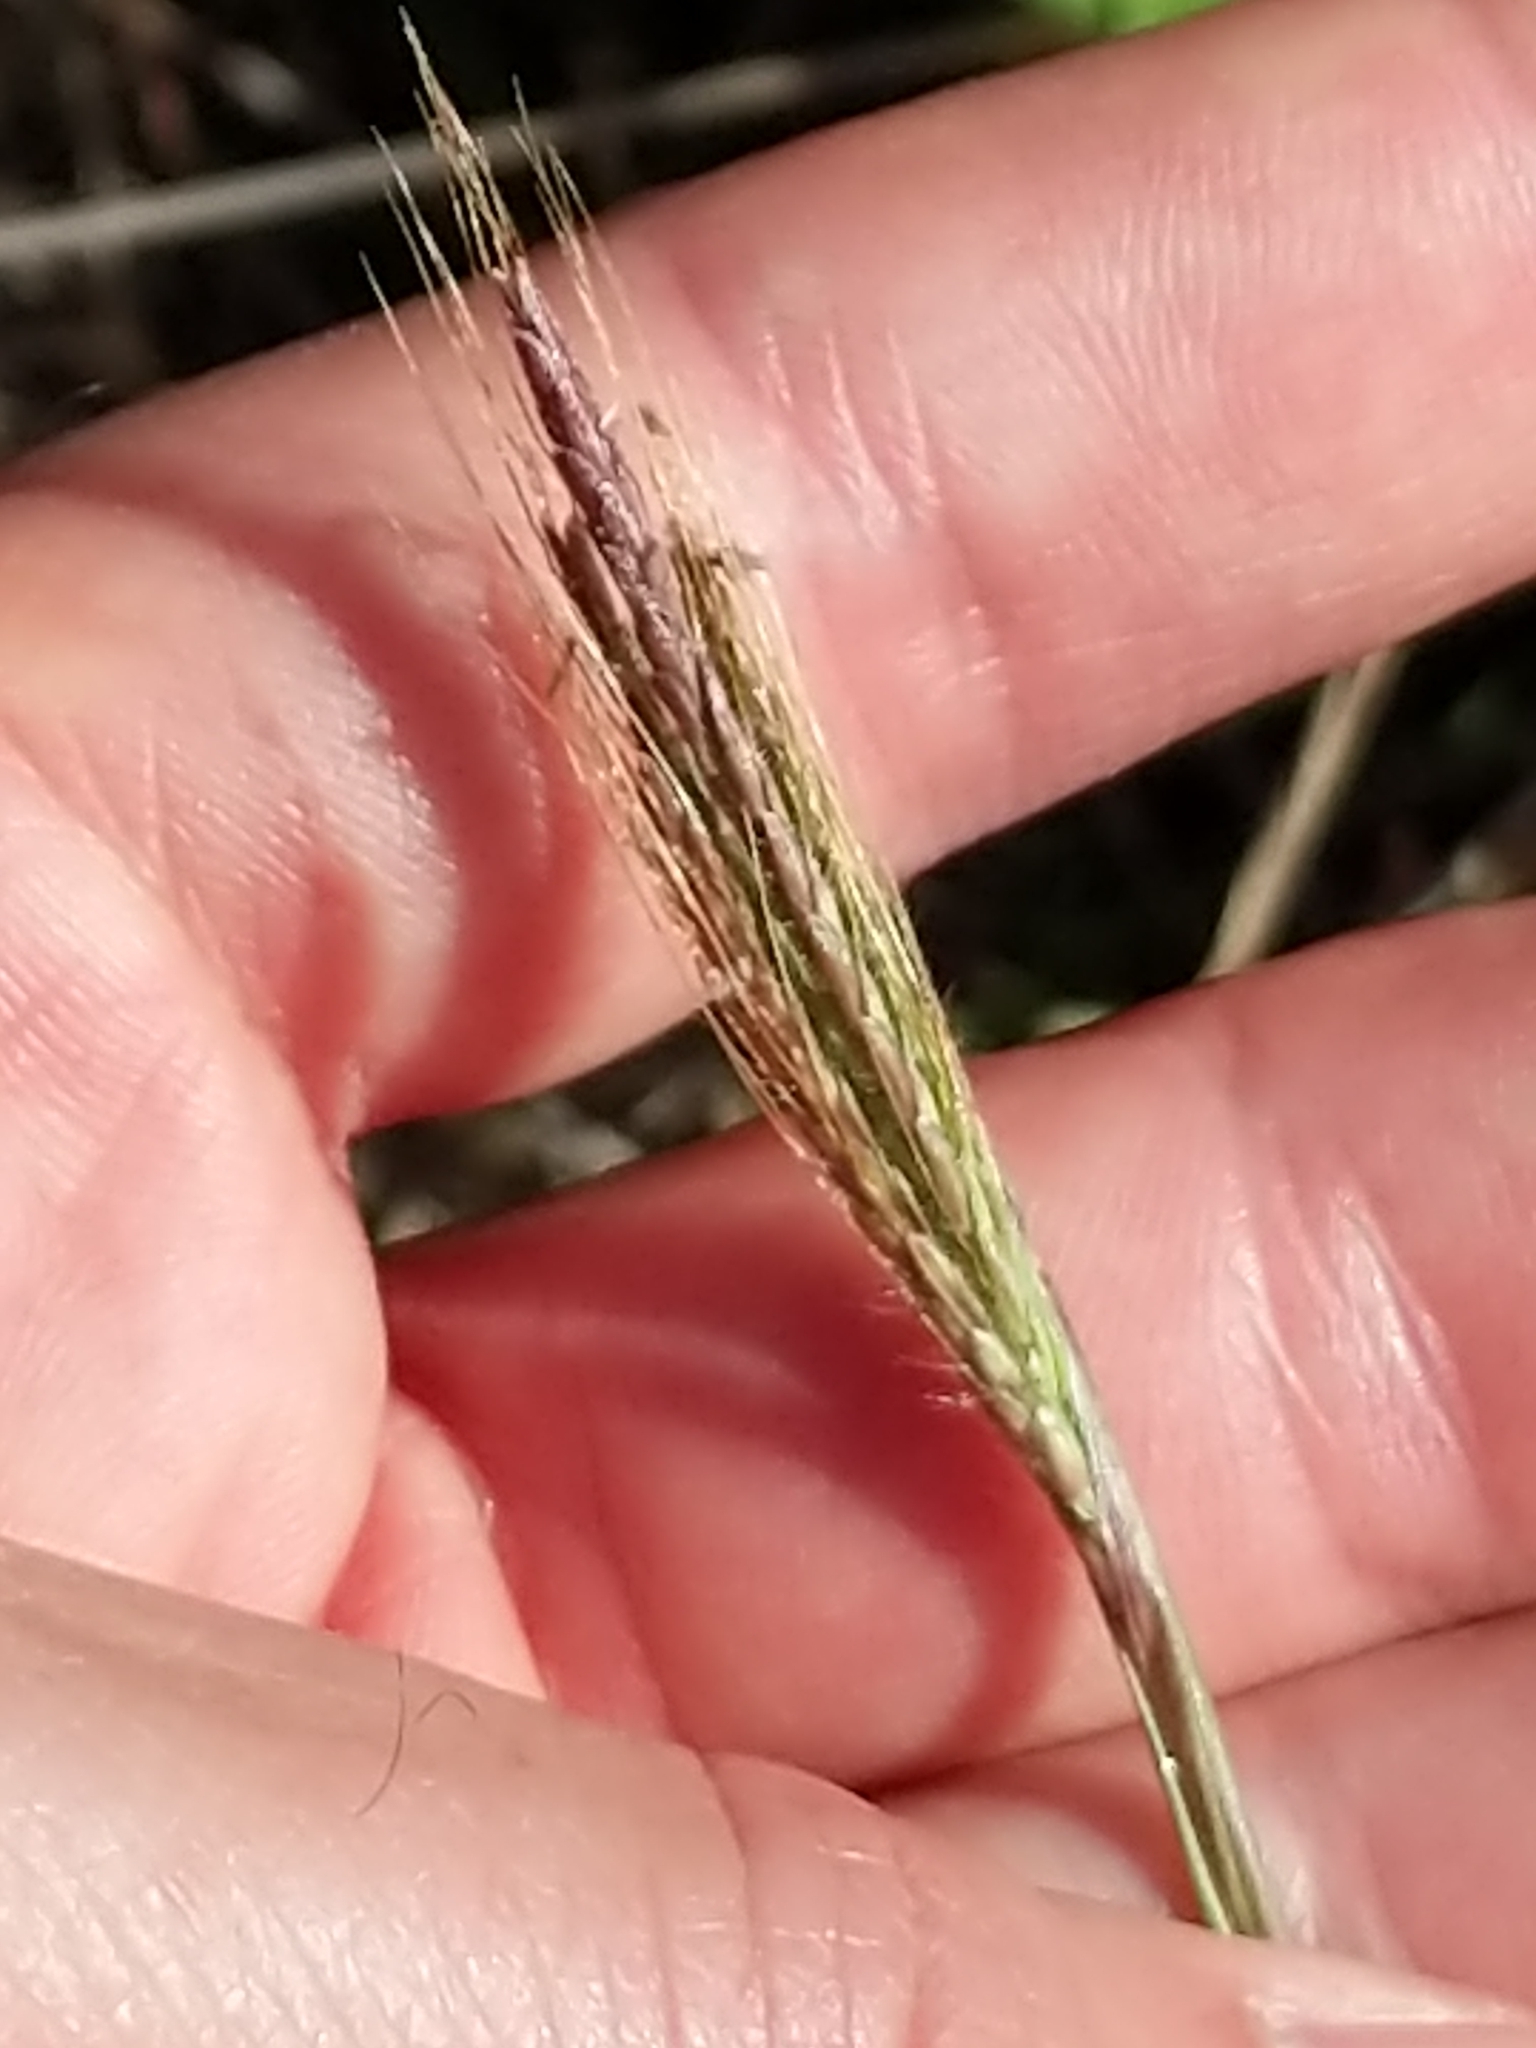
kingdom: Plantae
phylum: Tracheophyta
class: Liliopsida
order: Poales
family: Poaceae
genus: Dichanthium
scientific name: Dichanthium annulatum
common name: Kleberg's bluestem
